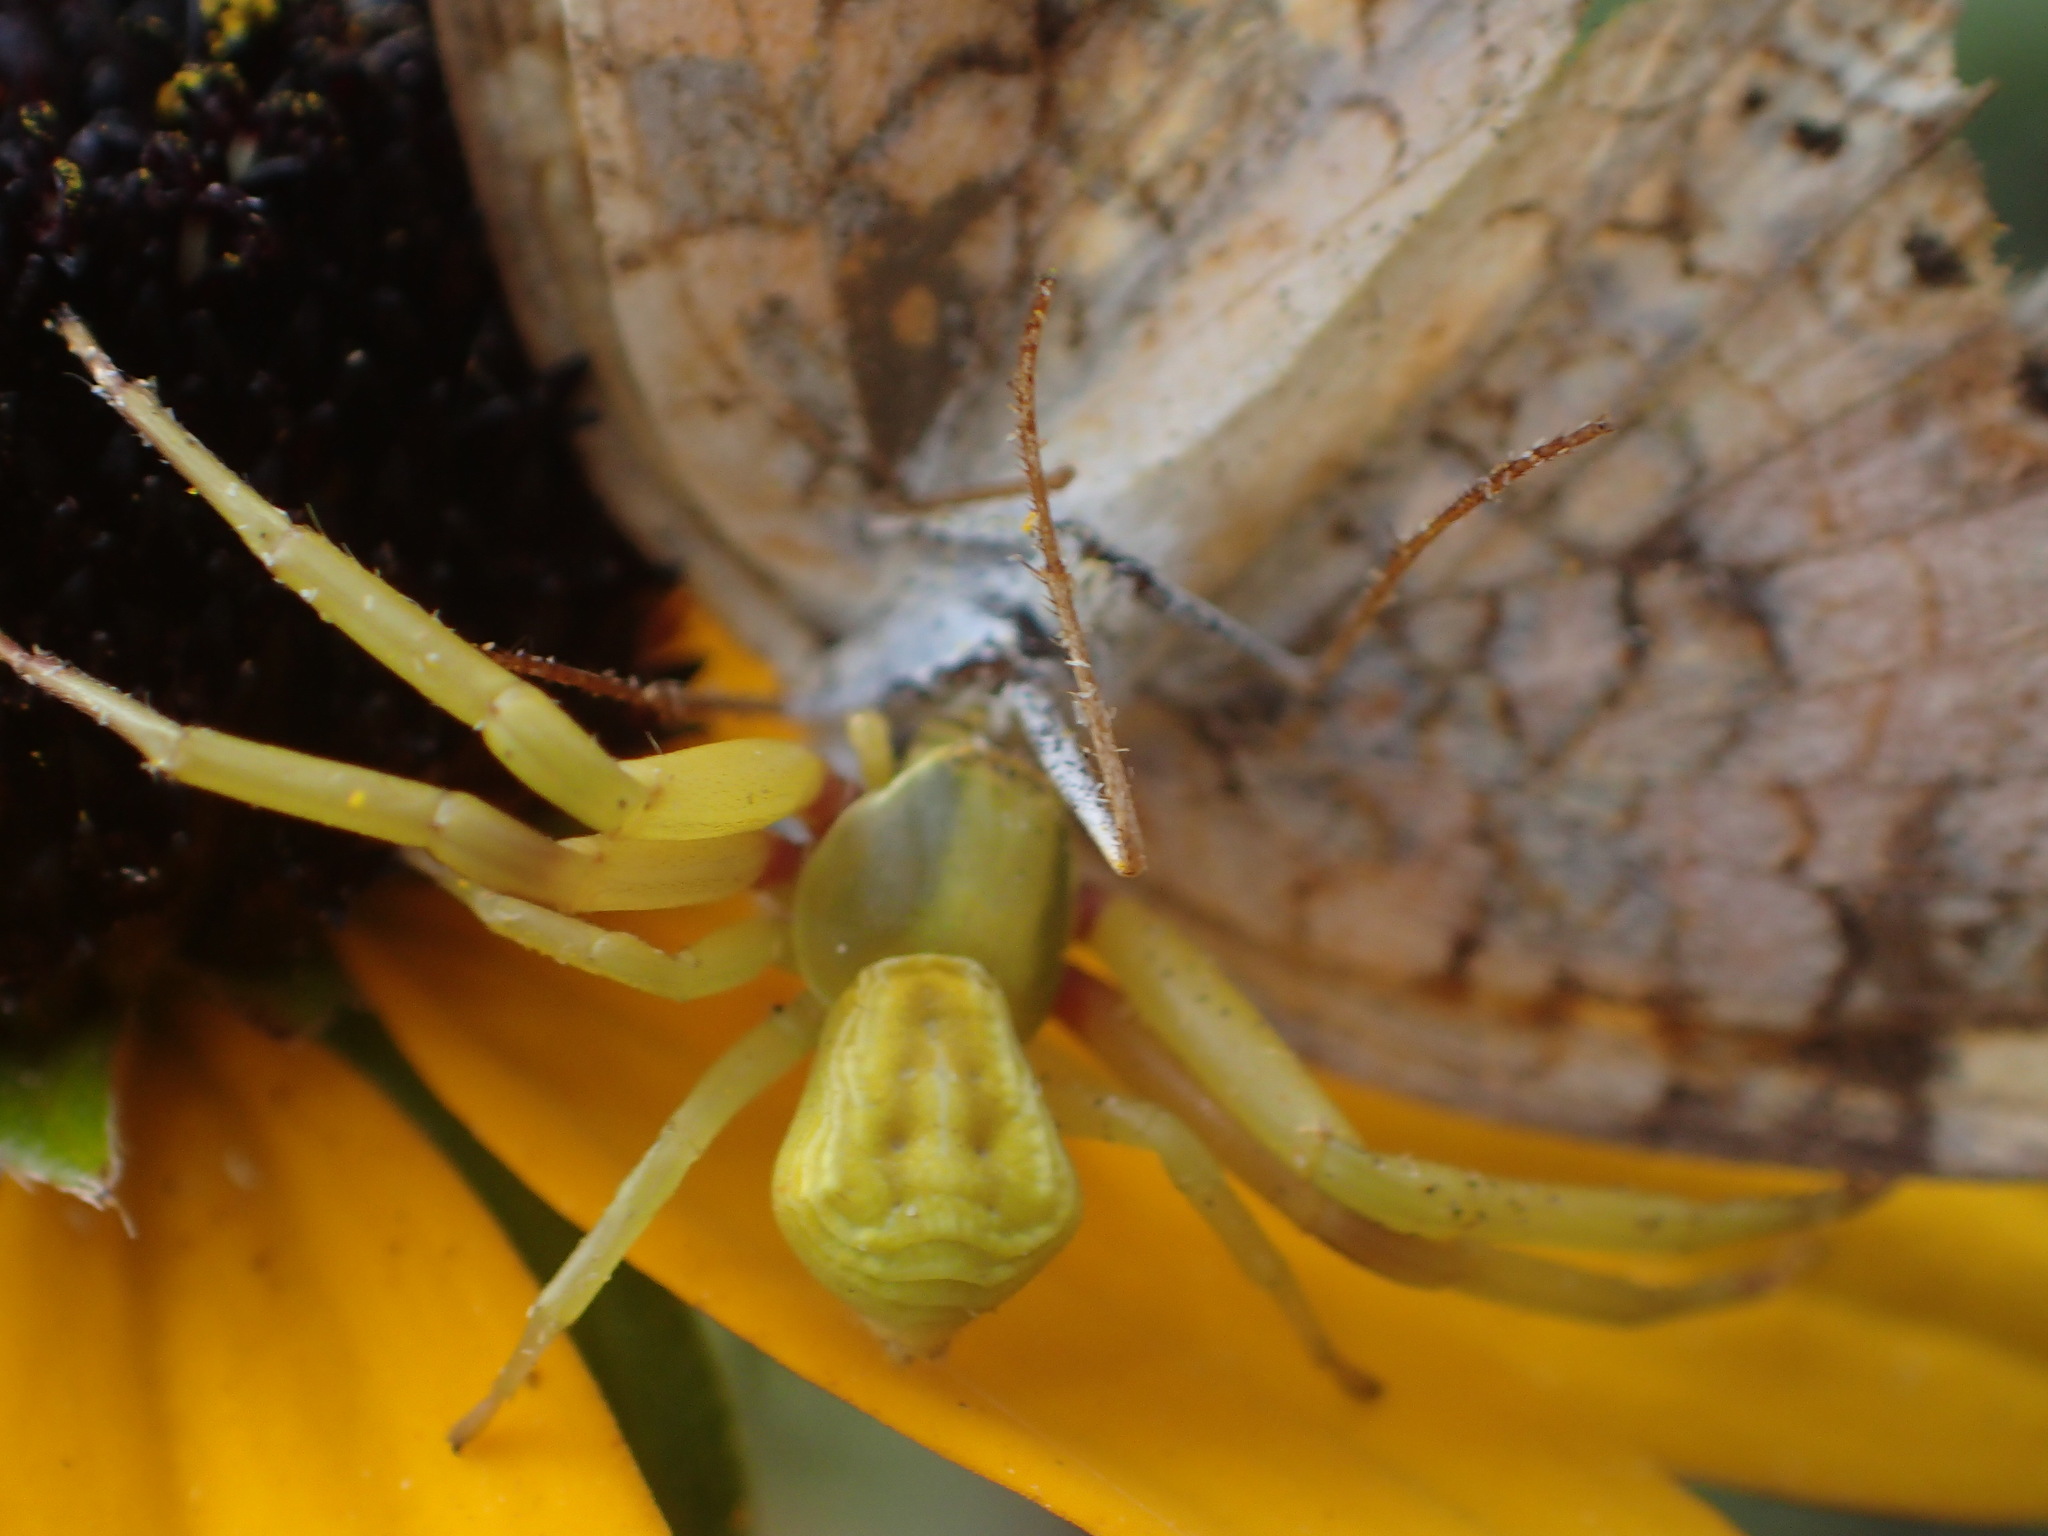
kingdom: Animalia
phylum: Arthropoda
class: Arachnida
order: Araneae
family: Thomisidae
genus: Misumenoides
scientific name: Misumenoides formosipes
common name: White-banded crab spider
